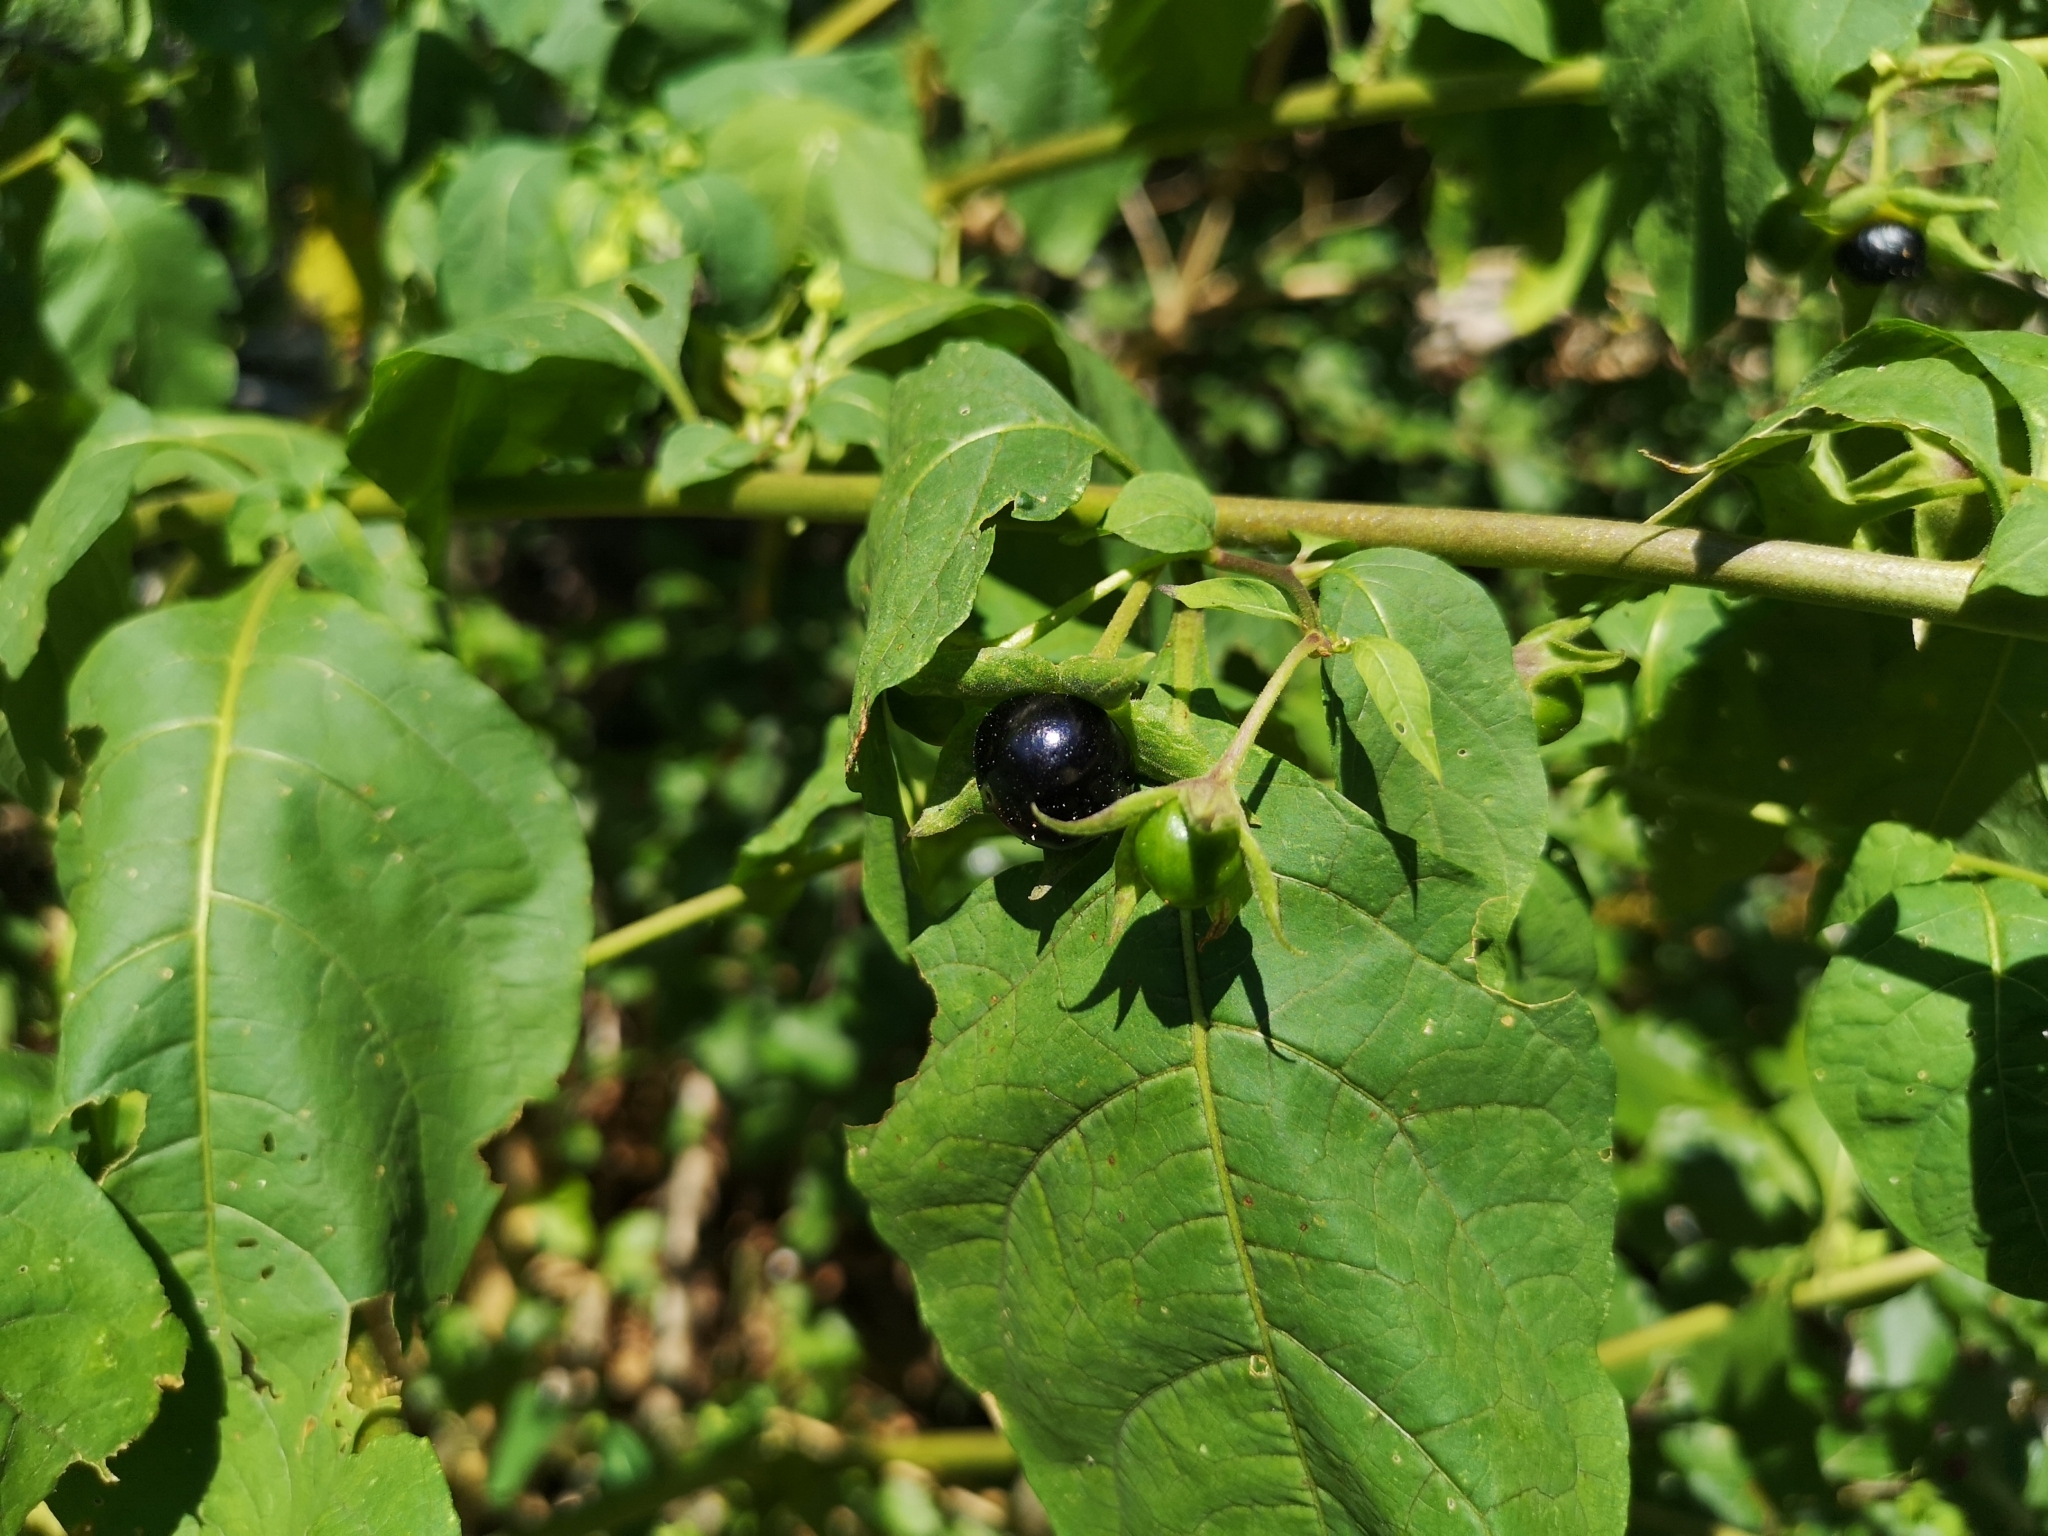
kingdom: Plantae
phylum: Tracheophyta
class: Magnoliopsida
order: Solanales
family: Solanaceae
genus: Atropa
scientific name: Atropa belladonna
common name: Deadly nightshade
